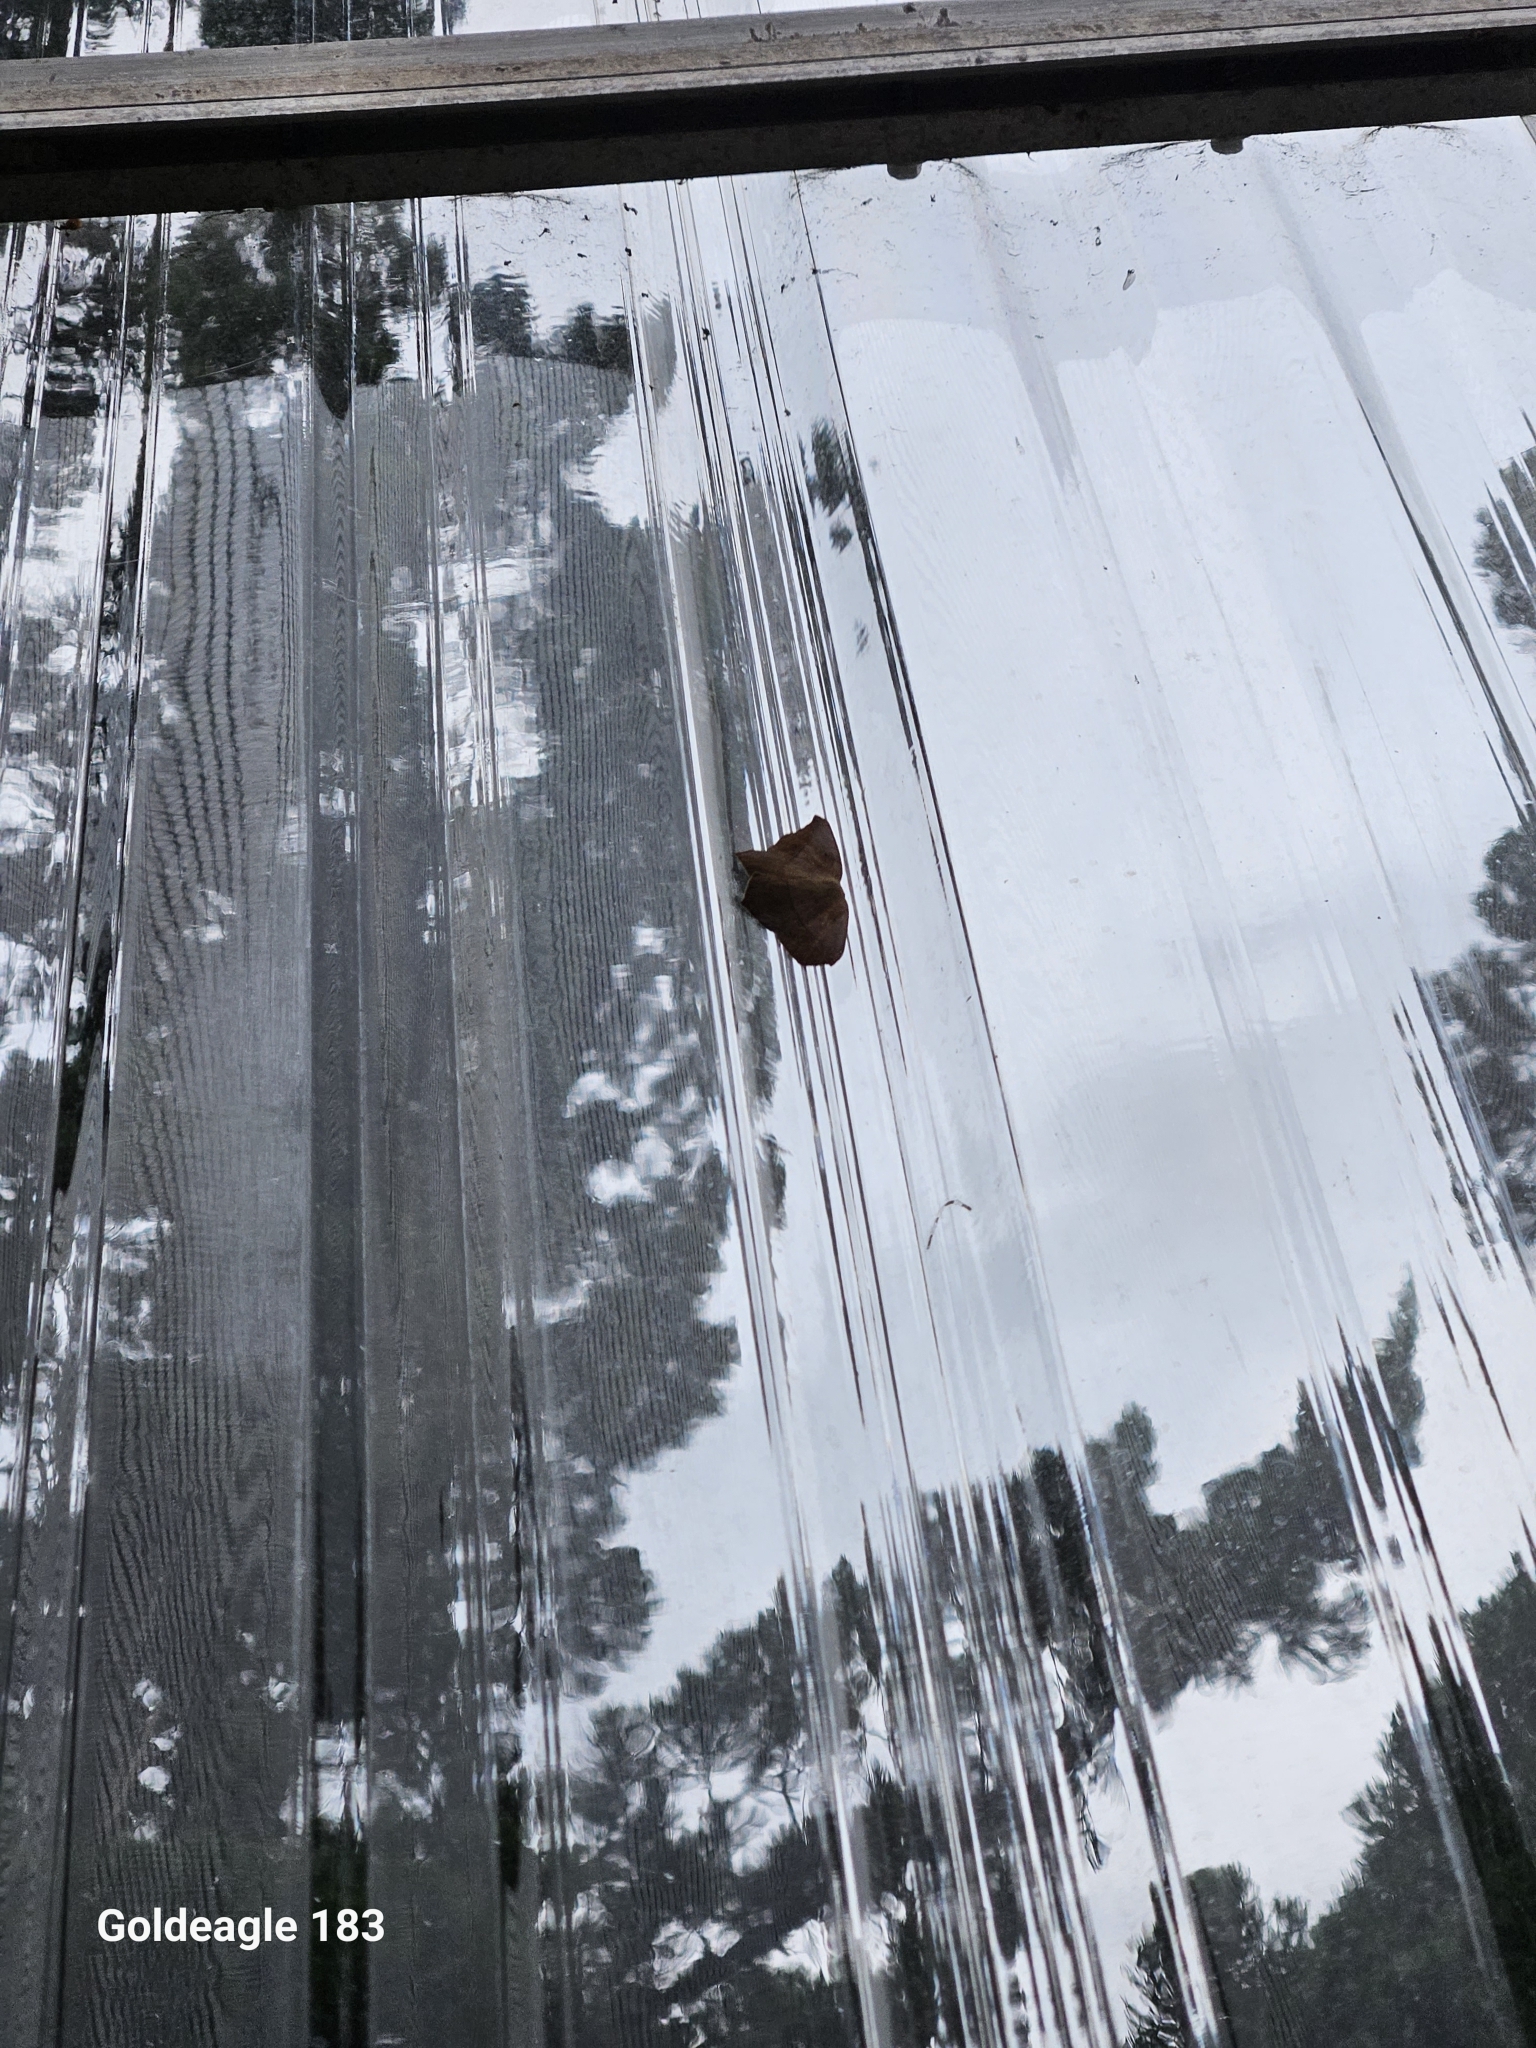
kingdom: Animalia
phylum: Arthropoda
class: Insecta
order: Lepidoptera
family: Geometridae
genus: Prochoerodes
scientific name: Prochoerodes lineola
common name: Large maple spanworm
